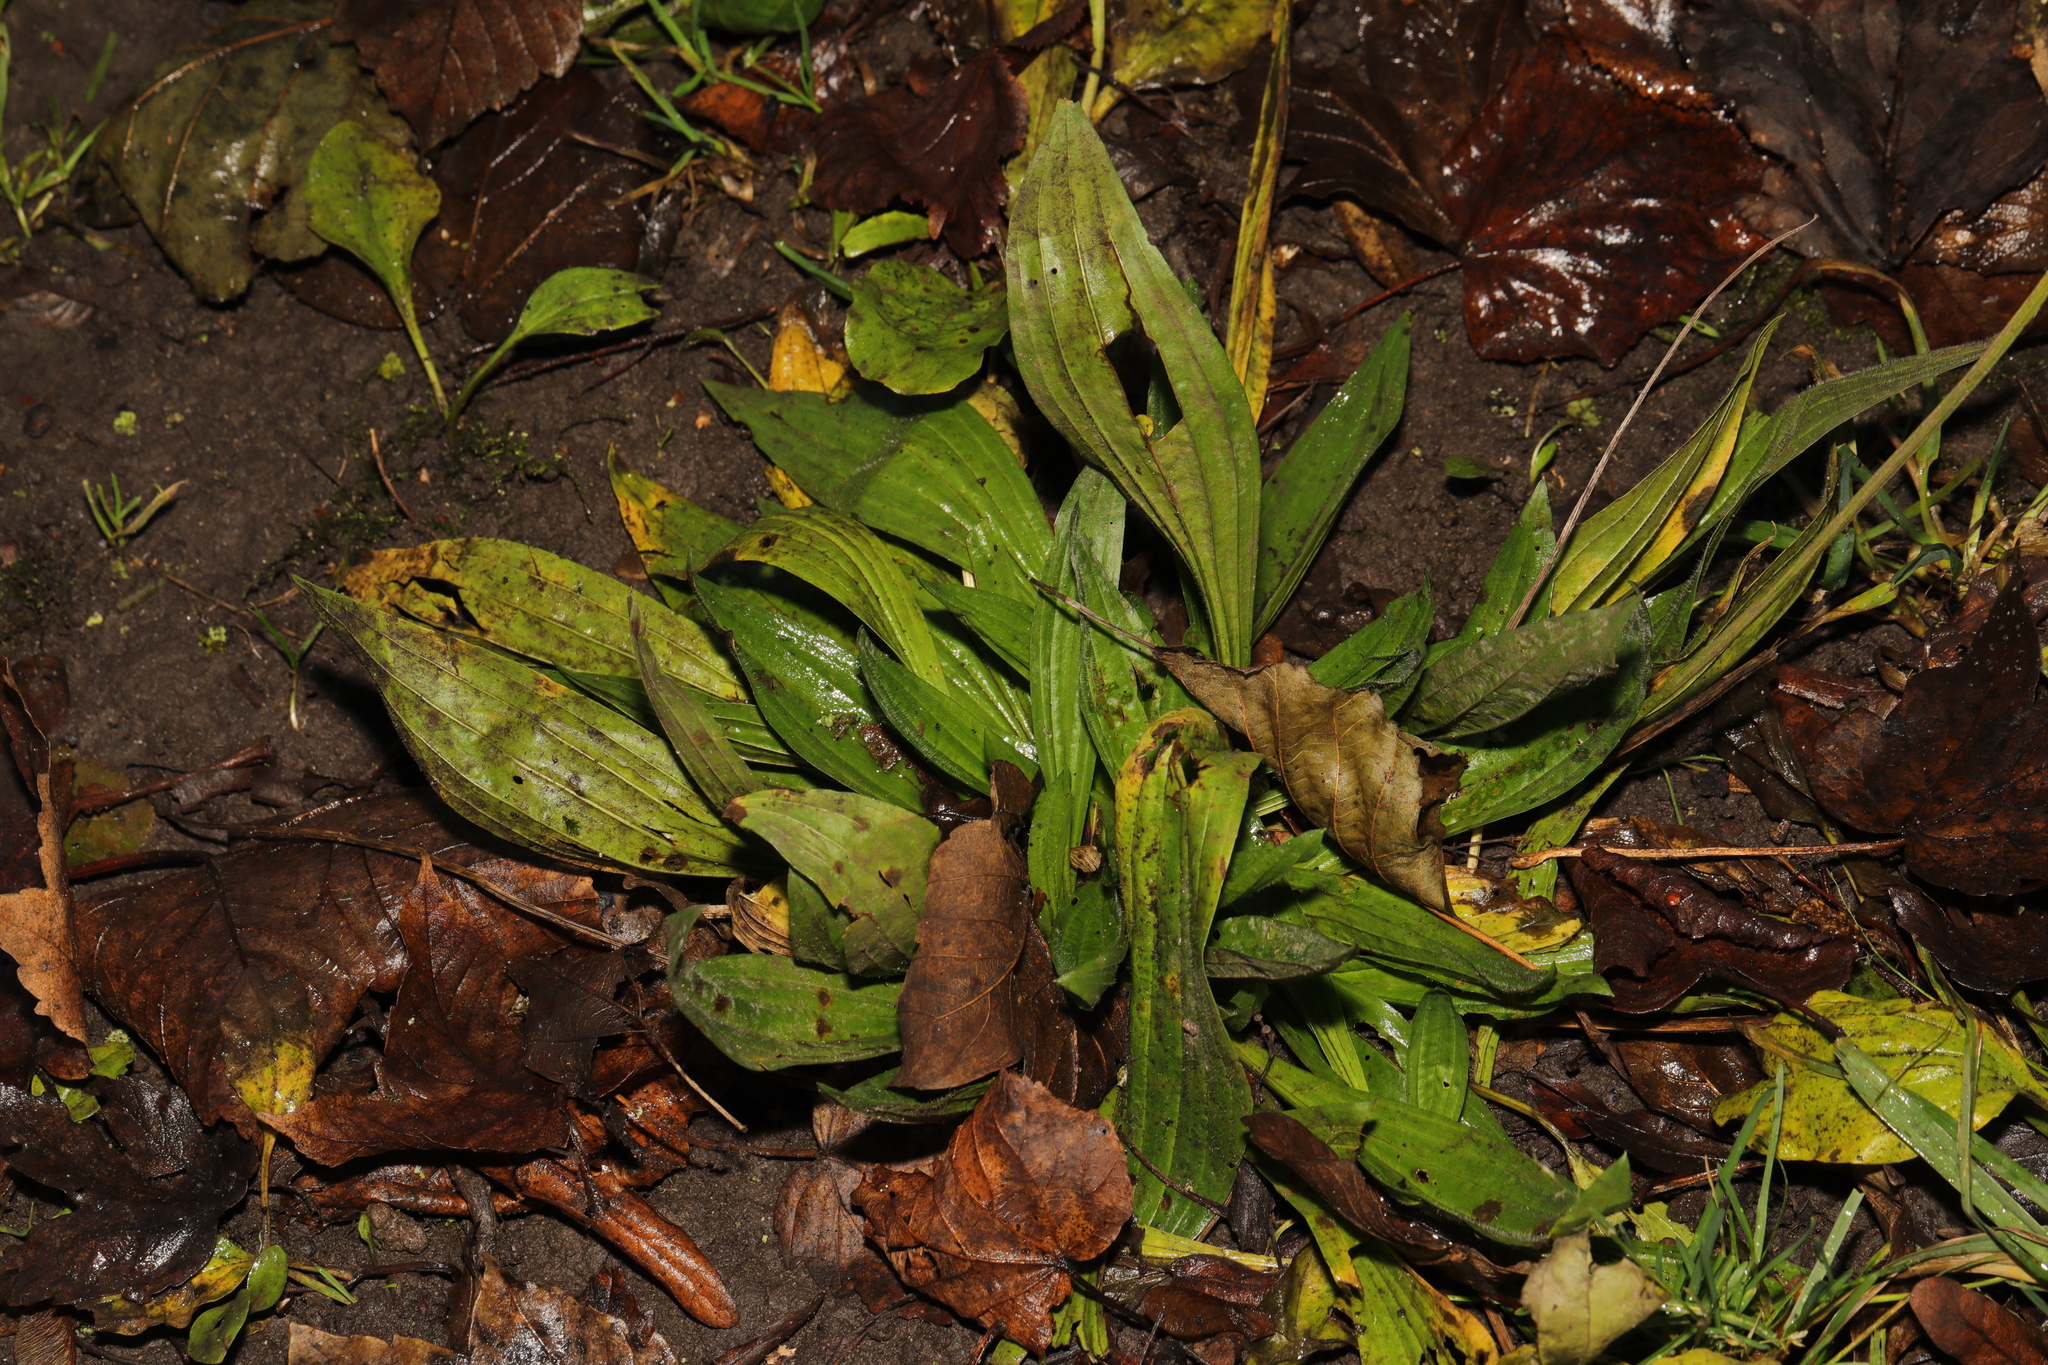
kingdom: Plantae
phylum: Tracheophyta
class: Magnoliopsida
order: Lamiales
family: Plantaginaceae
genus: Plantago
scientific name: Plantago lanceolata
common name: Ribwort plantain
